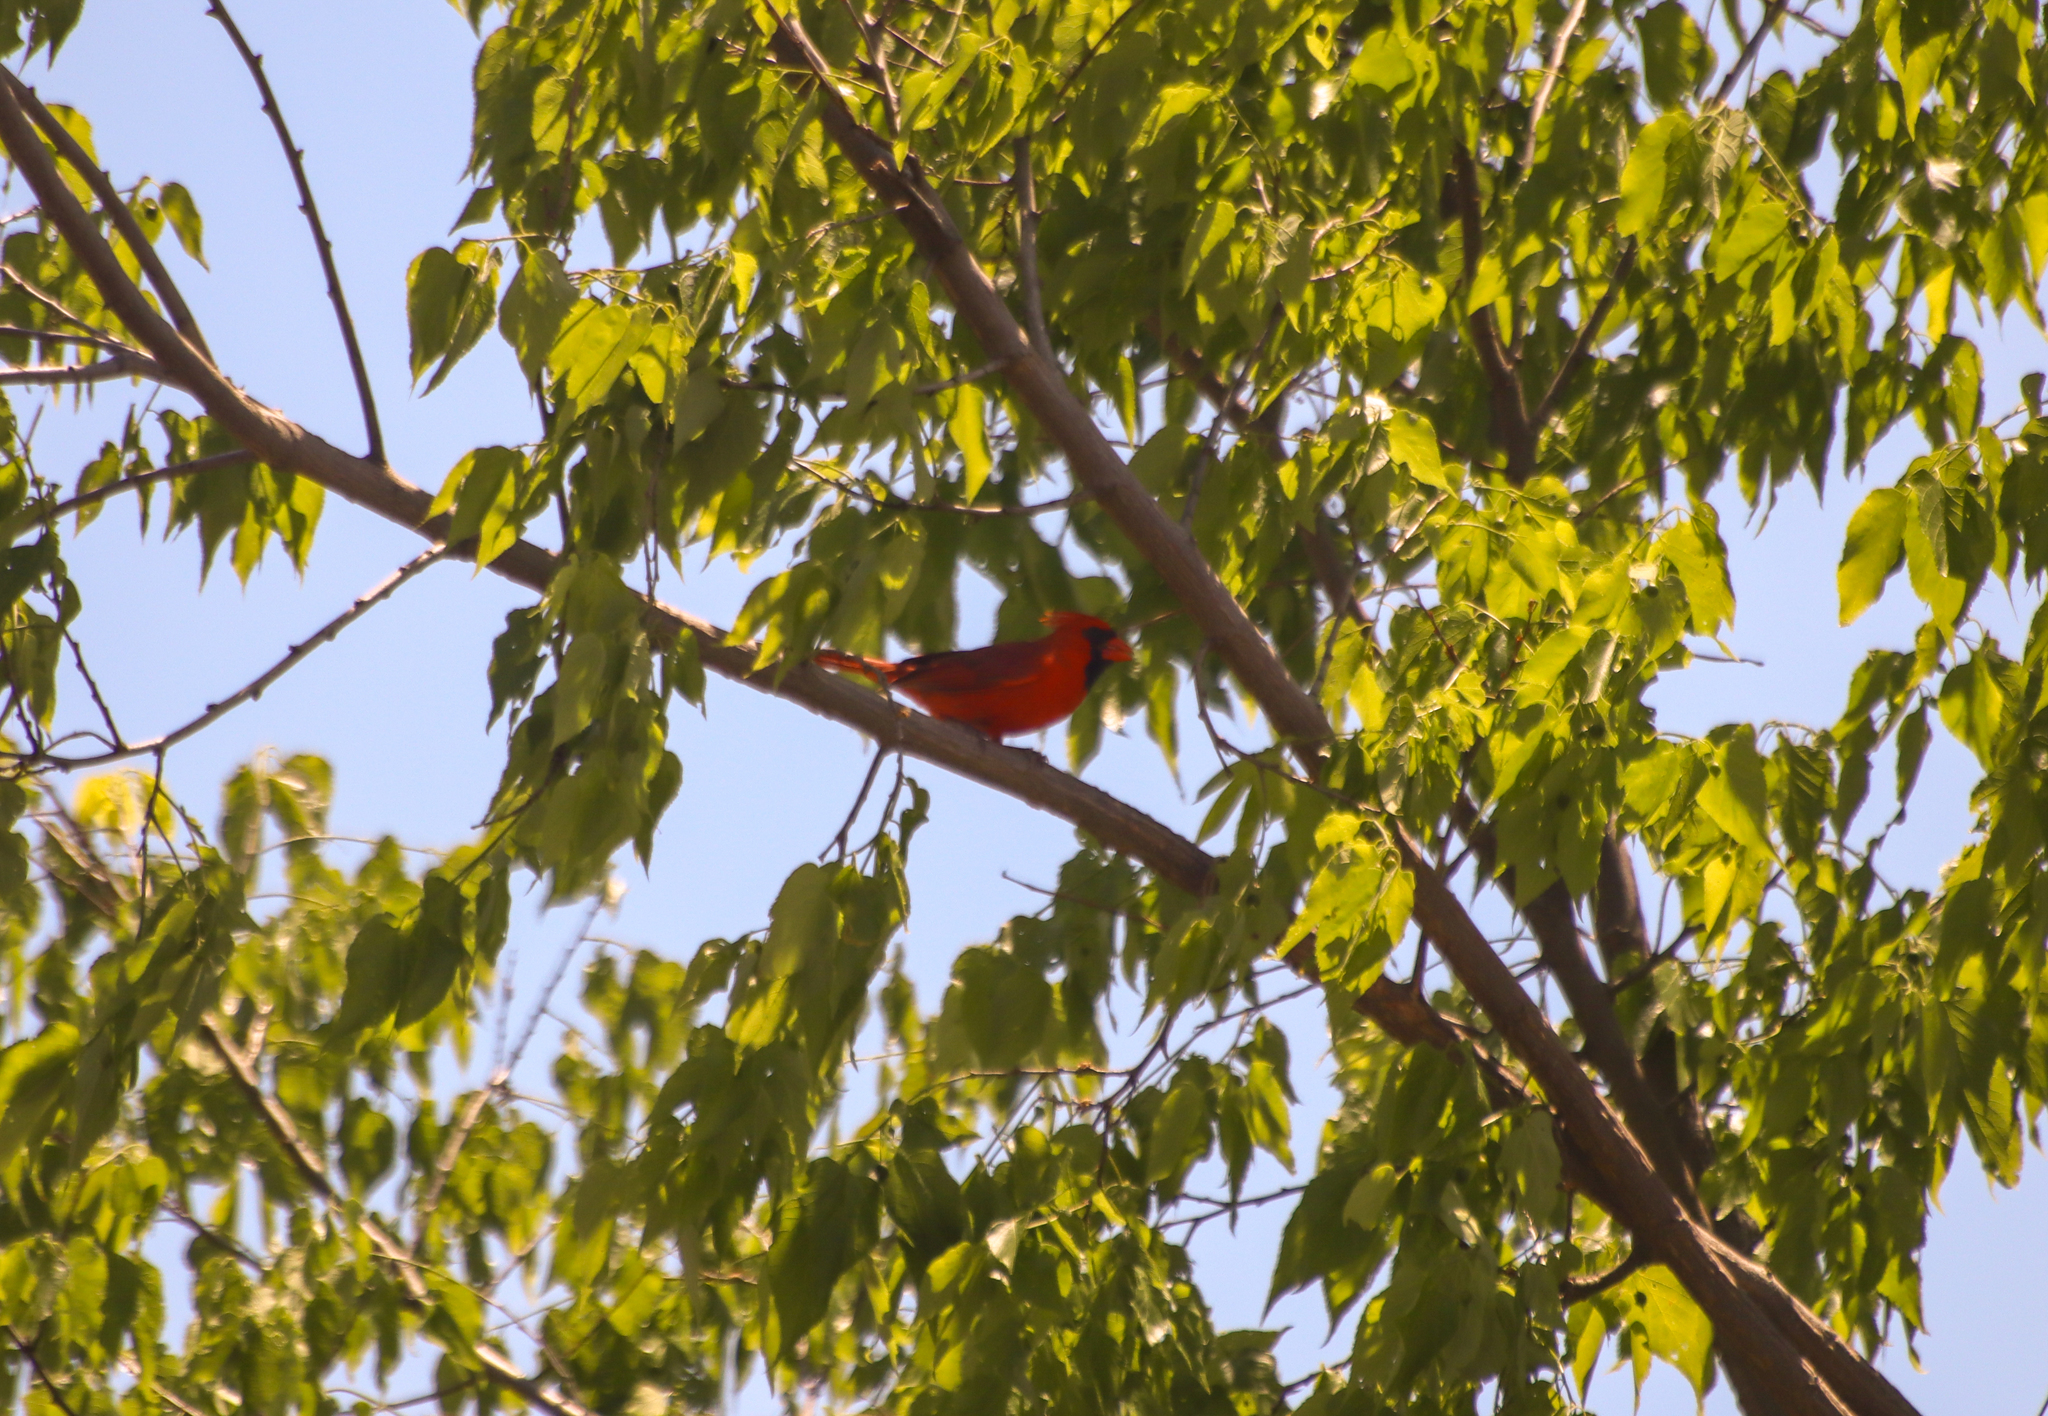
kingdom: Animalia
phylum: Chordata
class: Aves
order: Passeriformes
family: Cardinalidae
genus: Cardinalis
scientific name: Cardinalis cardinalis
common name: Northern cardinal
